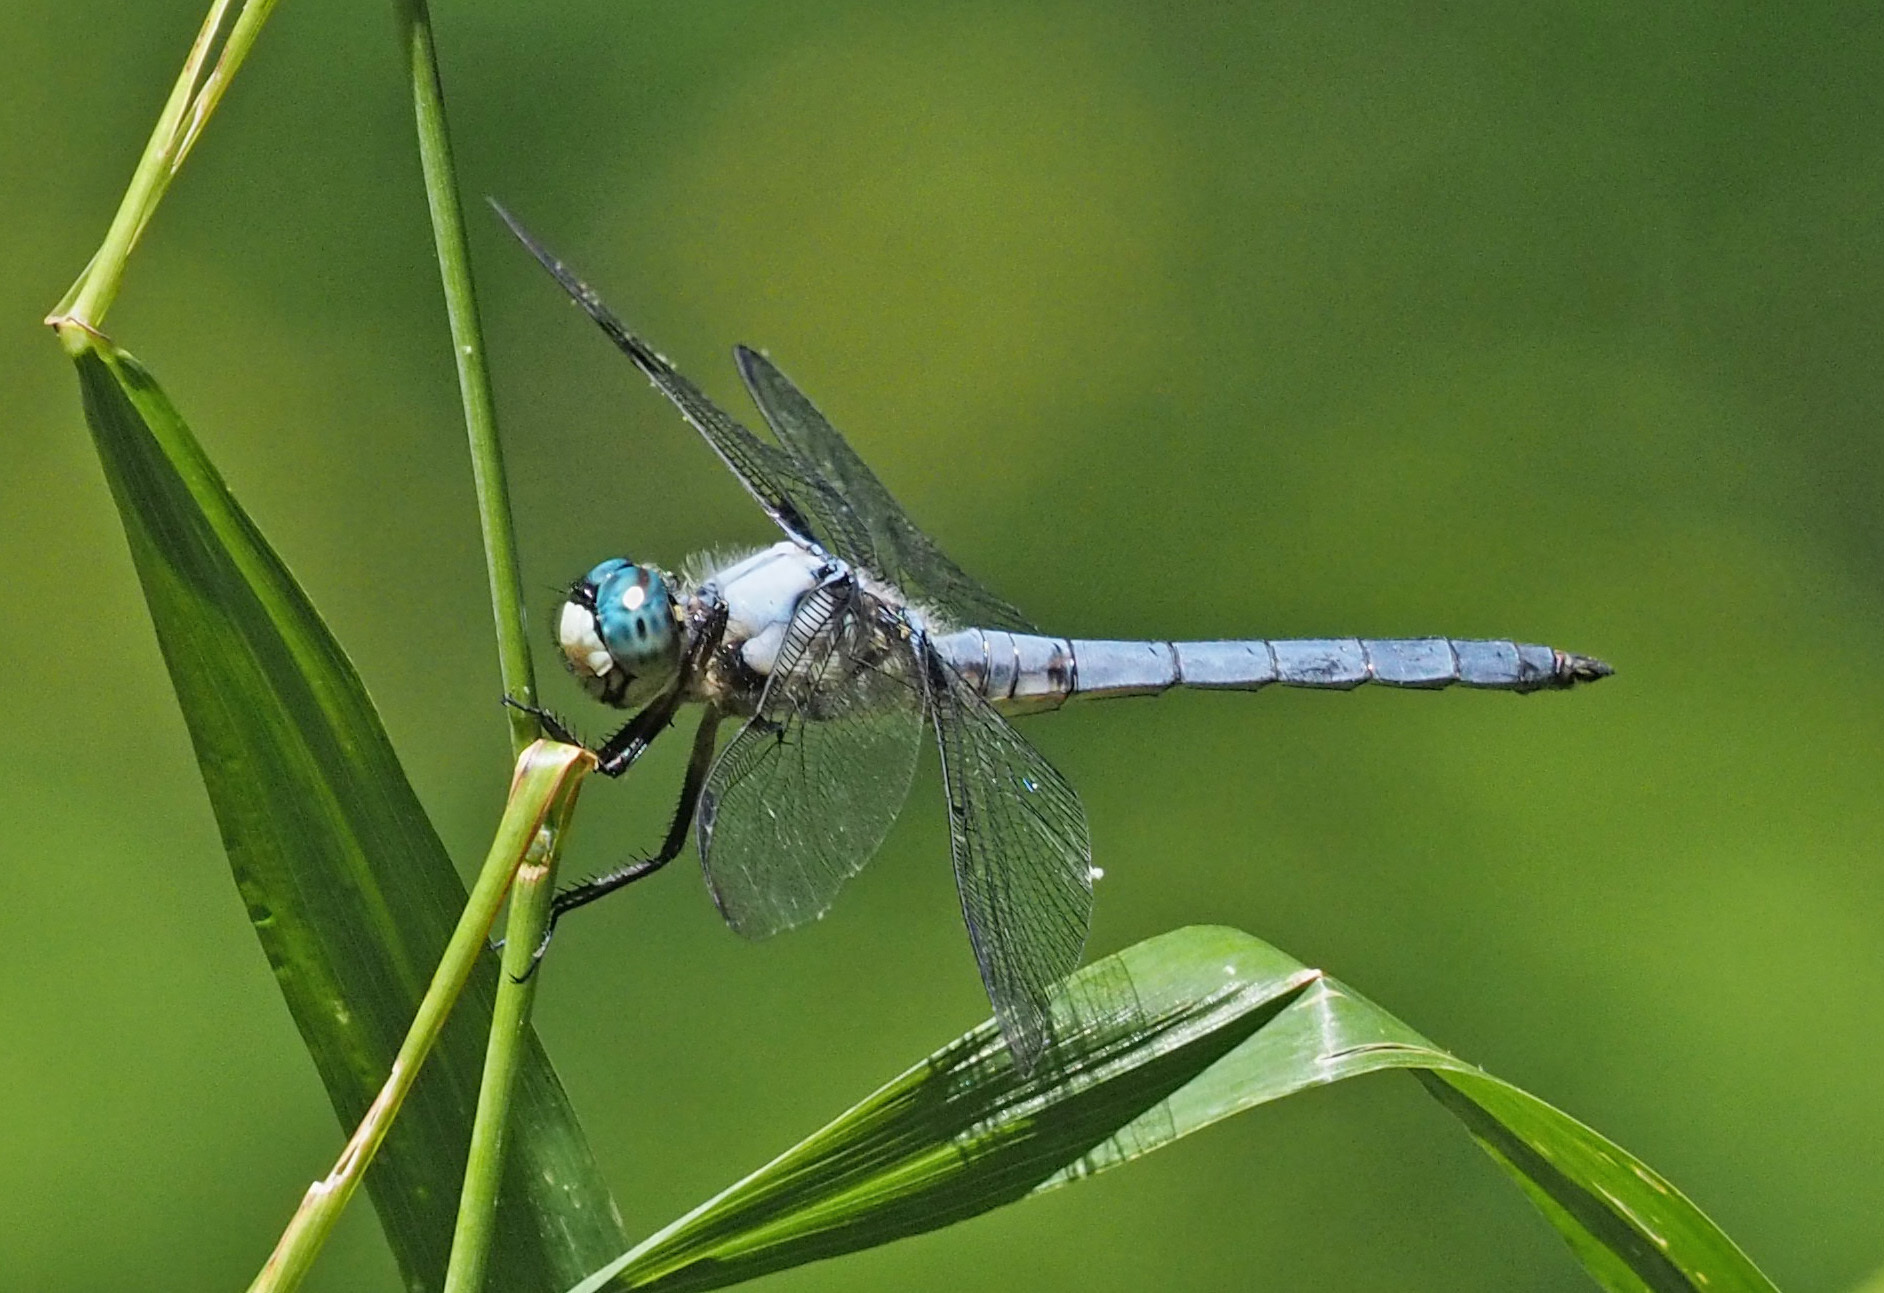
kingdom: Animalia
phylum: Arthropoda
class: Insecta
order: Odonata
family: Libellulidae
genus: Libellula
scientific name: Libellula vibrans
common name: Great blue skimmer
